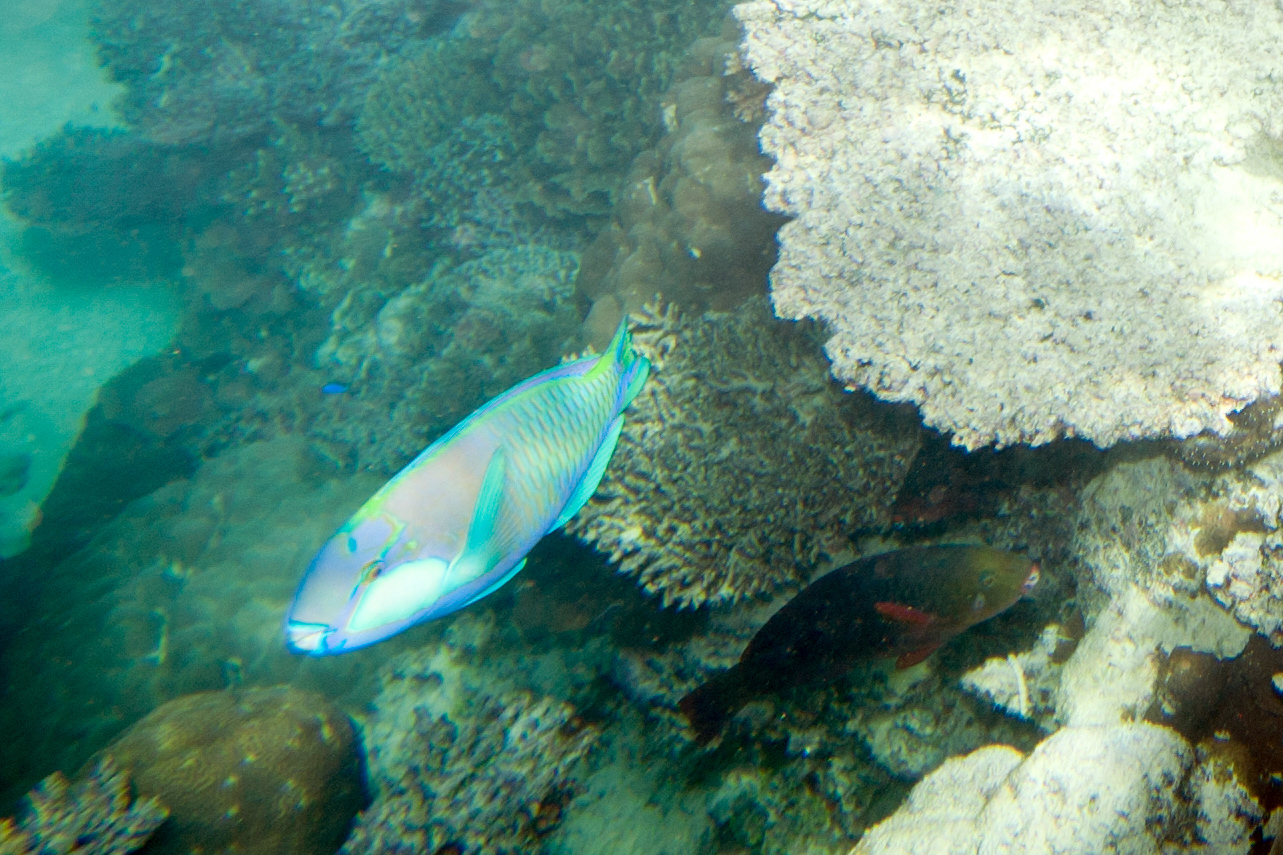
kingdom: Animalia
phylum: Chordata
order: Perciformes
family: Scaridae
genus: Chlorurus
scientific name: Chlorurus bleekeri
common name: Bleeker's parrotfish
